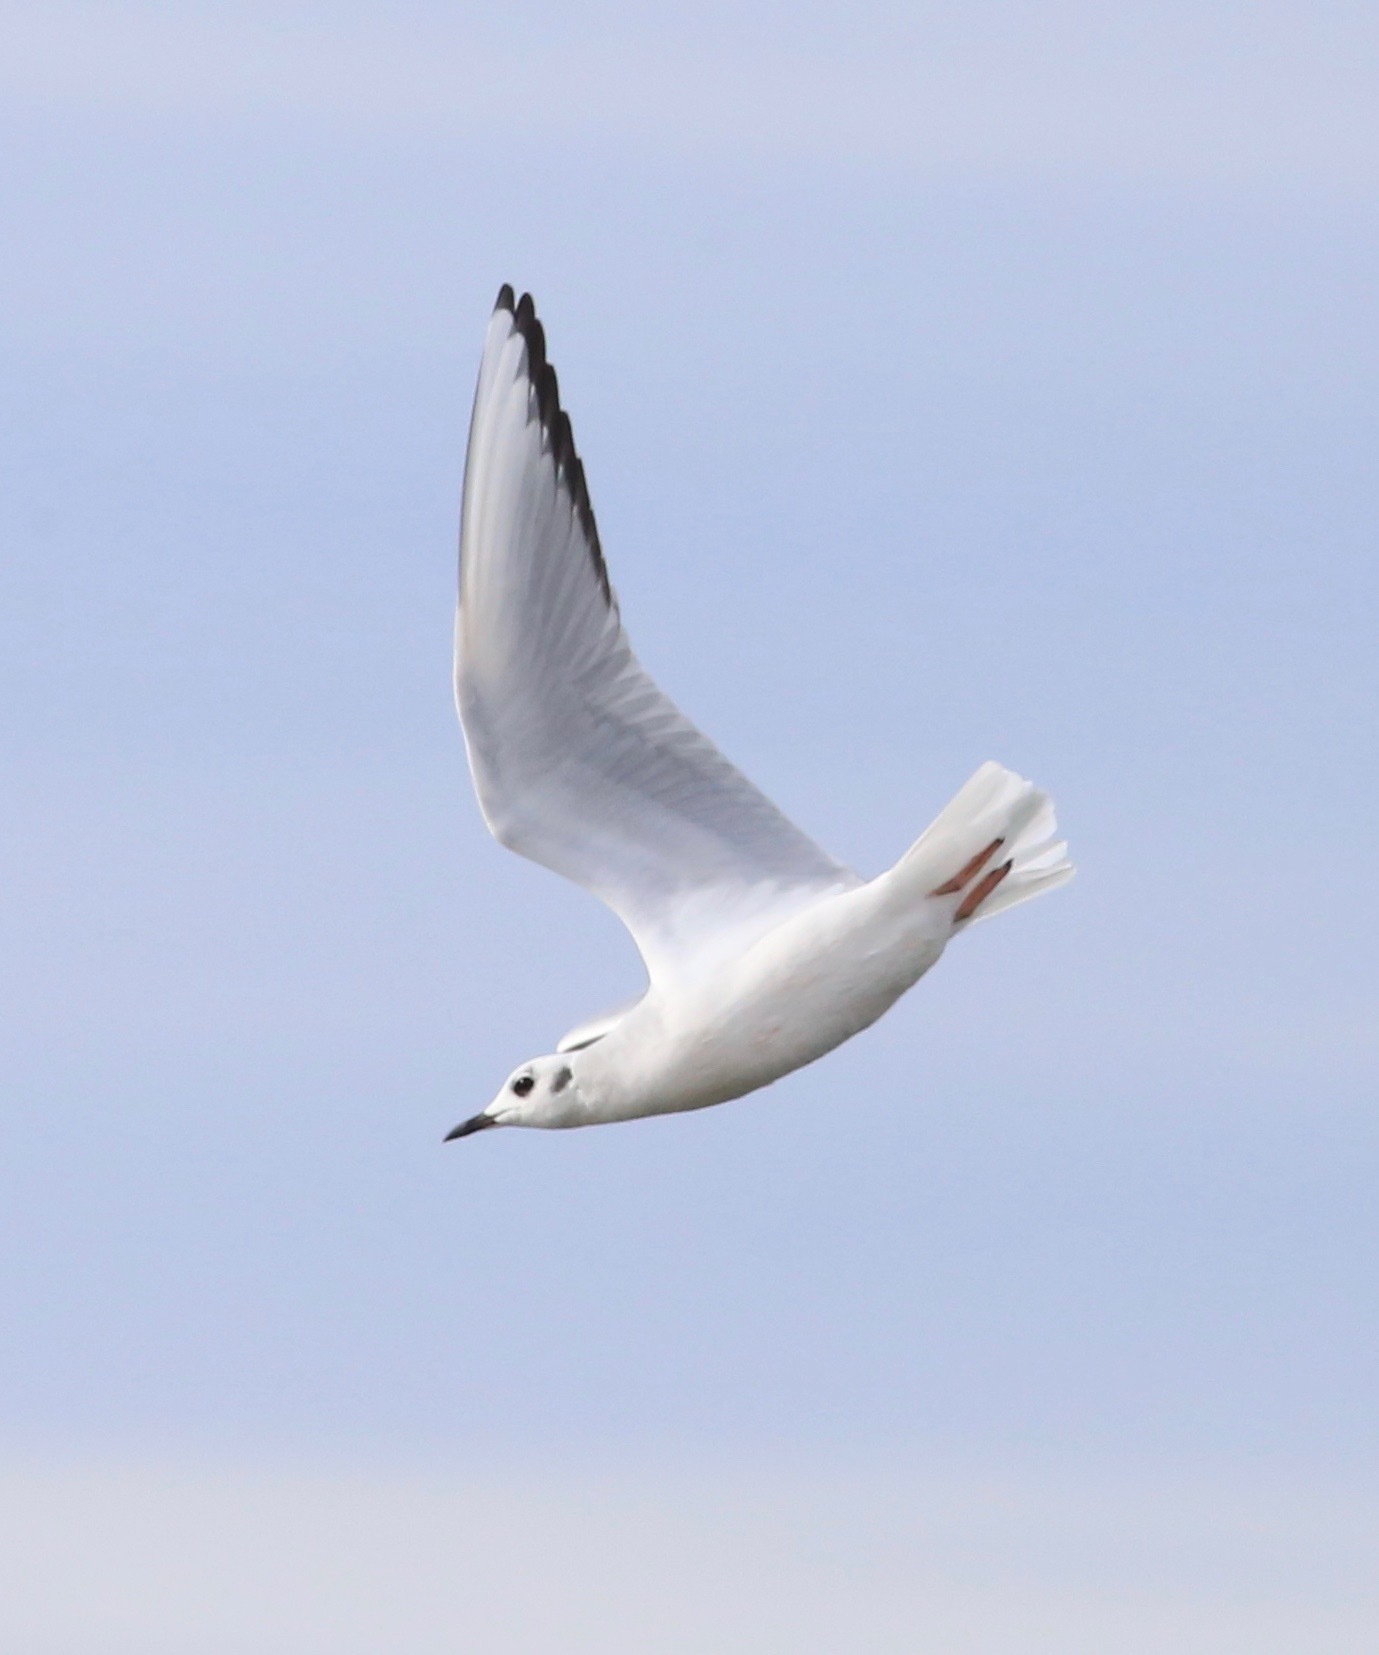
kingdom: Animalia
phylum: Chordata
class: Aves
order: Charadriiformes
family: Laridae
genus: Chroicocephalus
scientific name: Chroicocephalus philadelphia
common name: Bonaparte's gull
